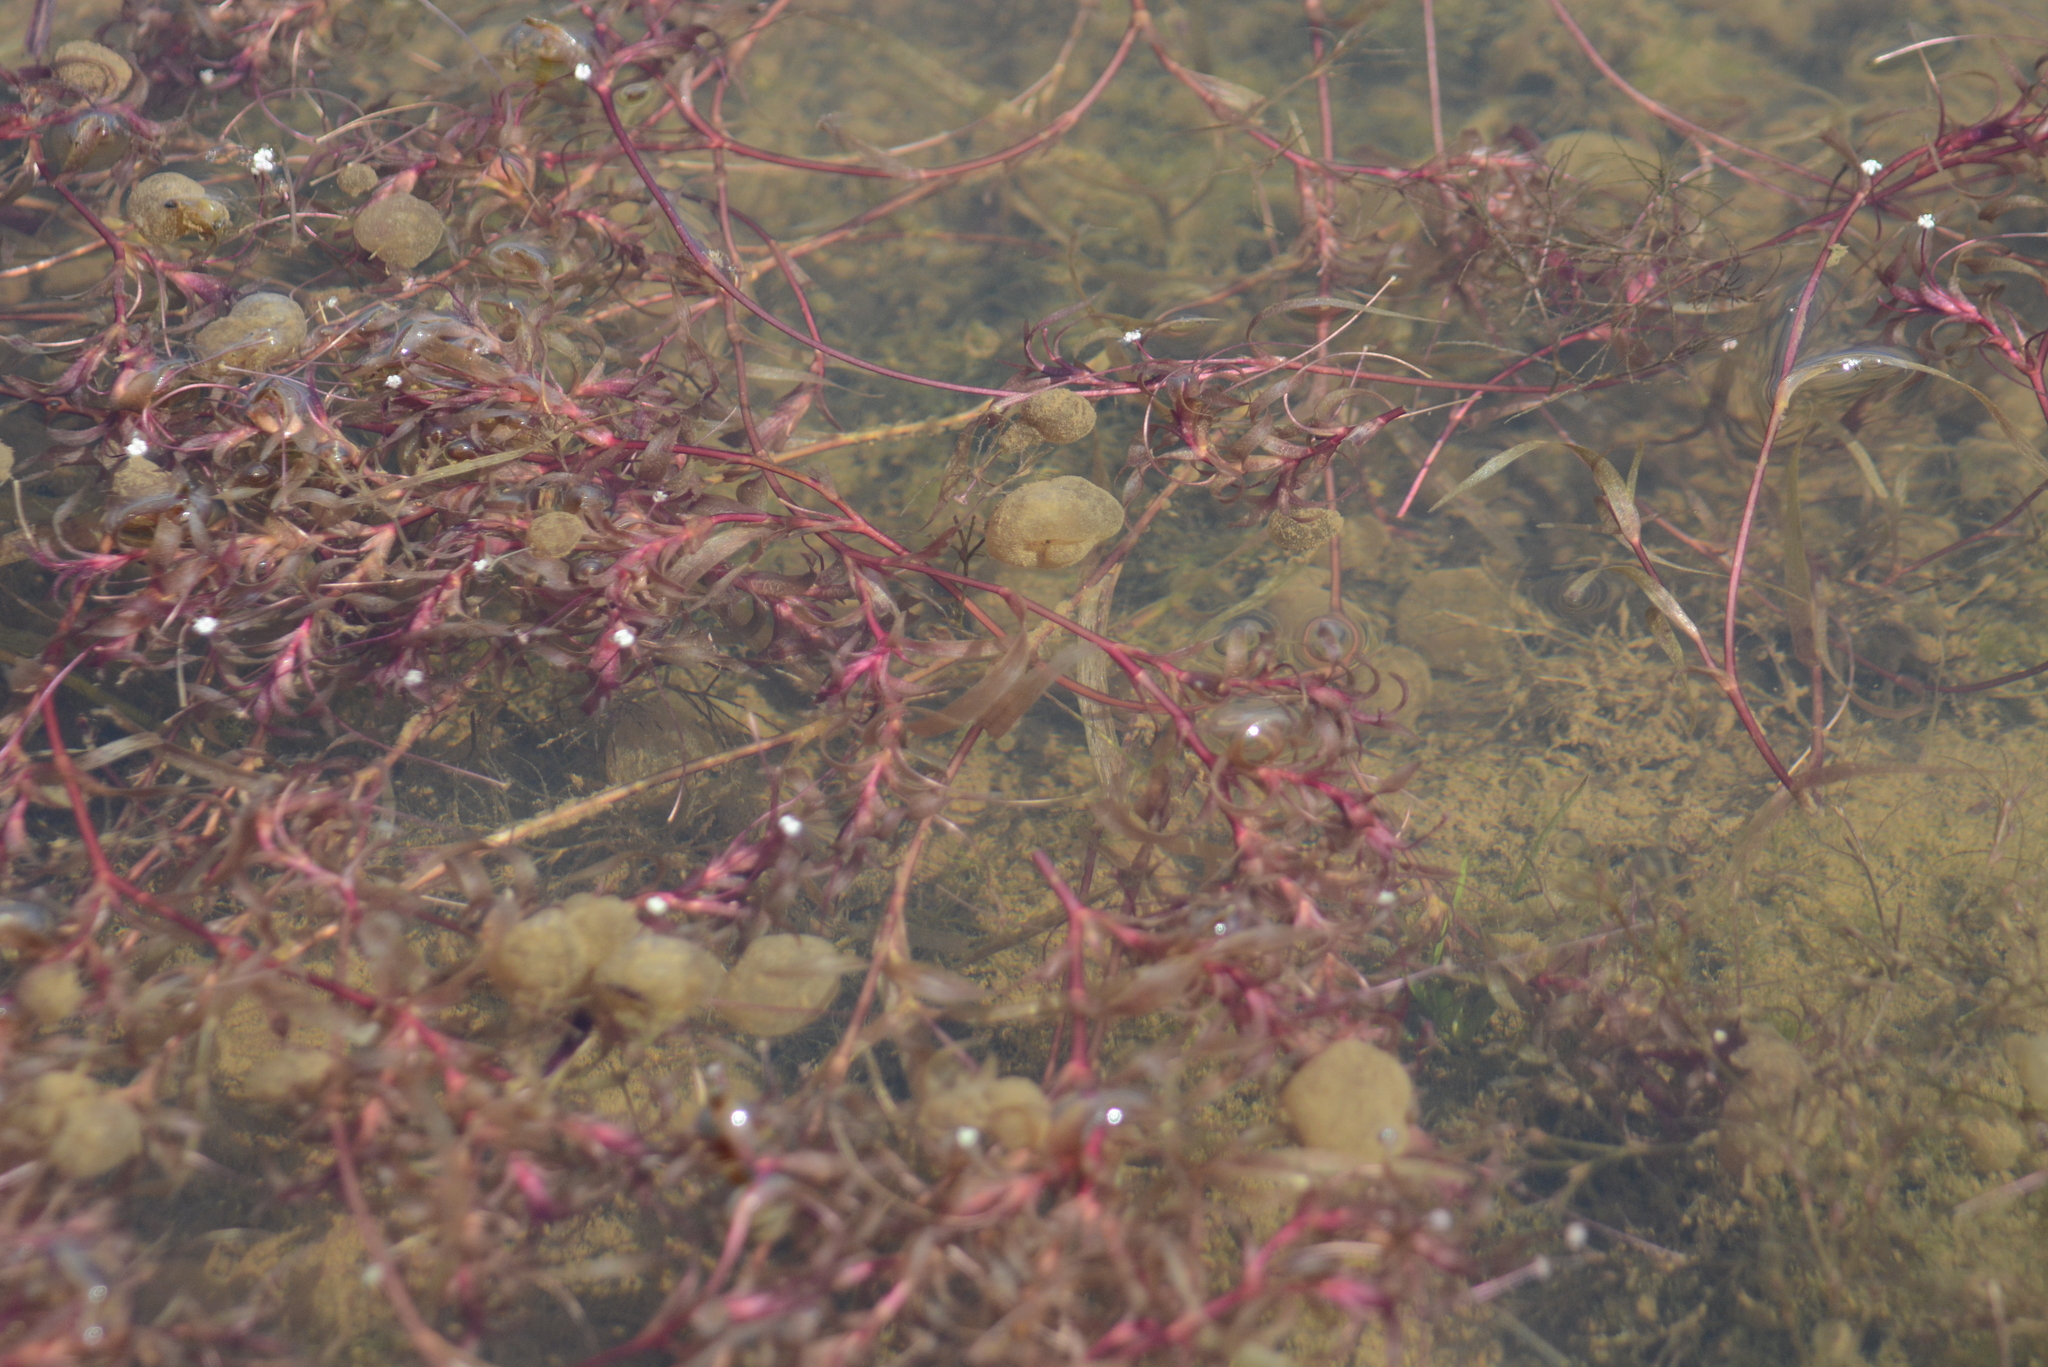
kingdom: Plantae
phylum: Tracheophyta
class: Liliopsida
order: Alismatales
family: Hydrocharitaceae
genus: Nechamandra
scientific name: Nechamandra alternifolia
